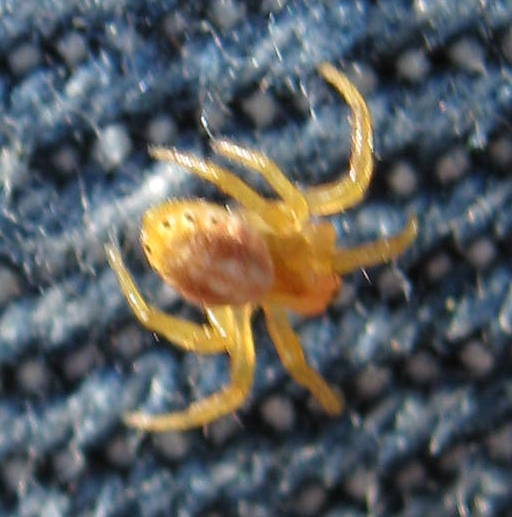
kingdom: Animalia
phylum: Arthropoda
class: Arachnida
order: Araneae
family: Araneidae
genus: Araniella
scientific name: Araniella displicata
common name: Sixspotted orb weaver
